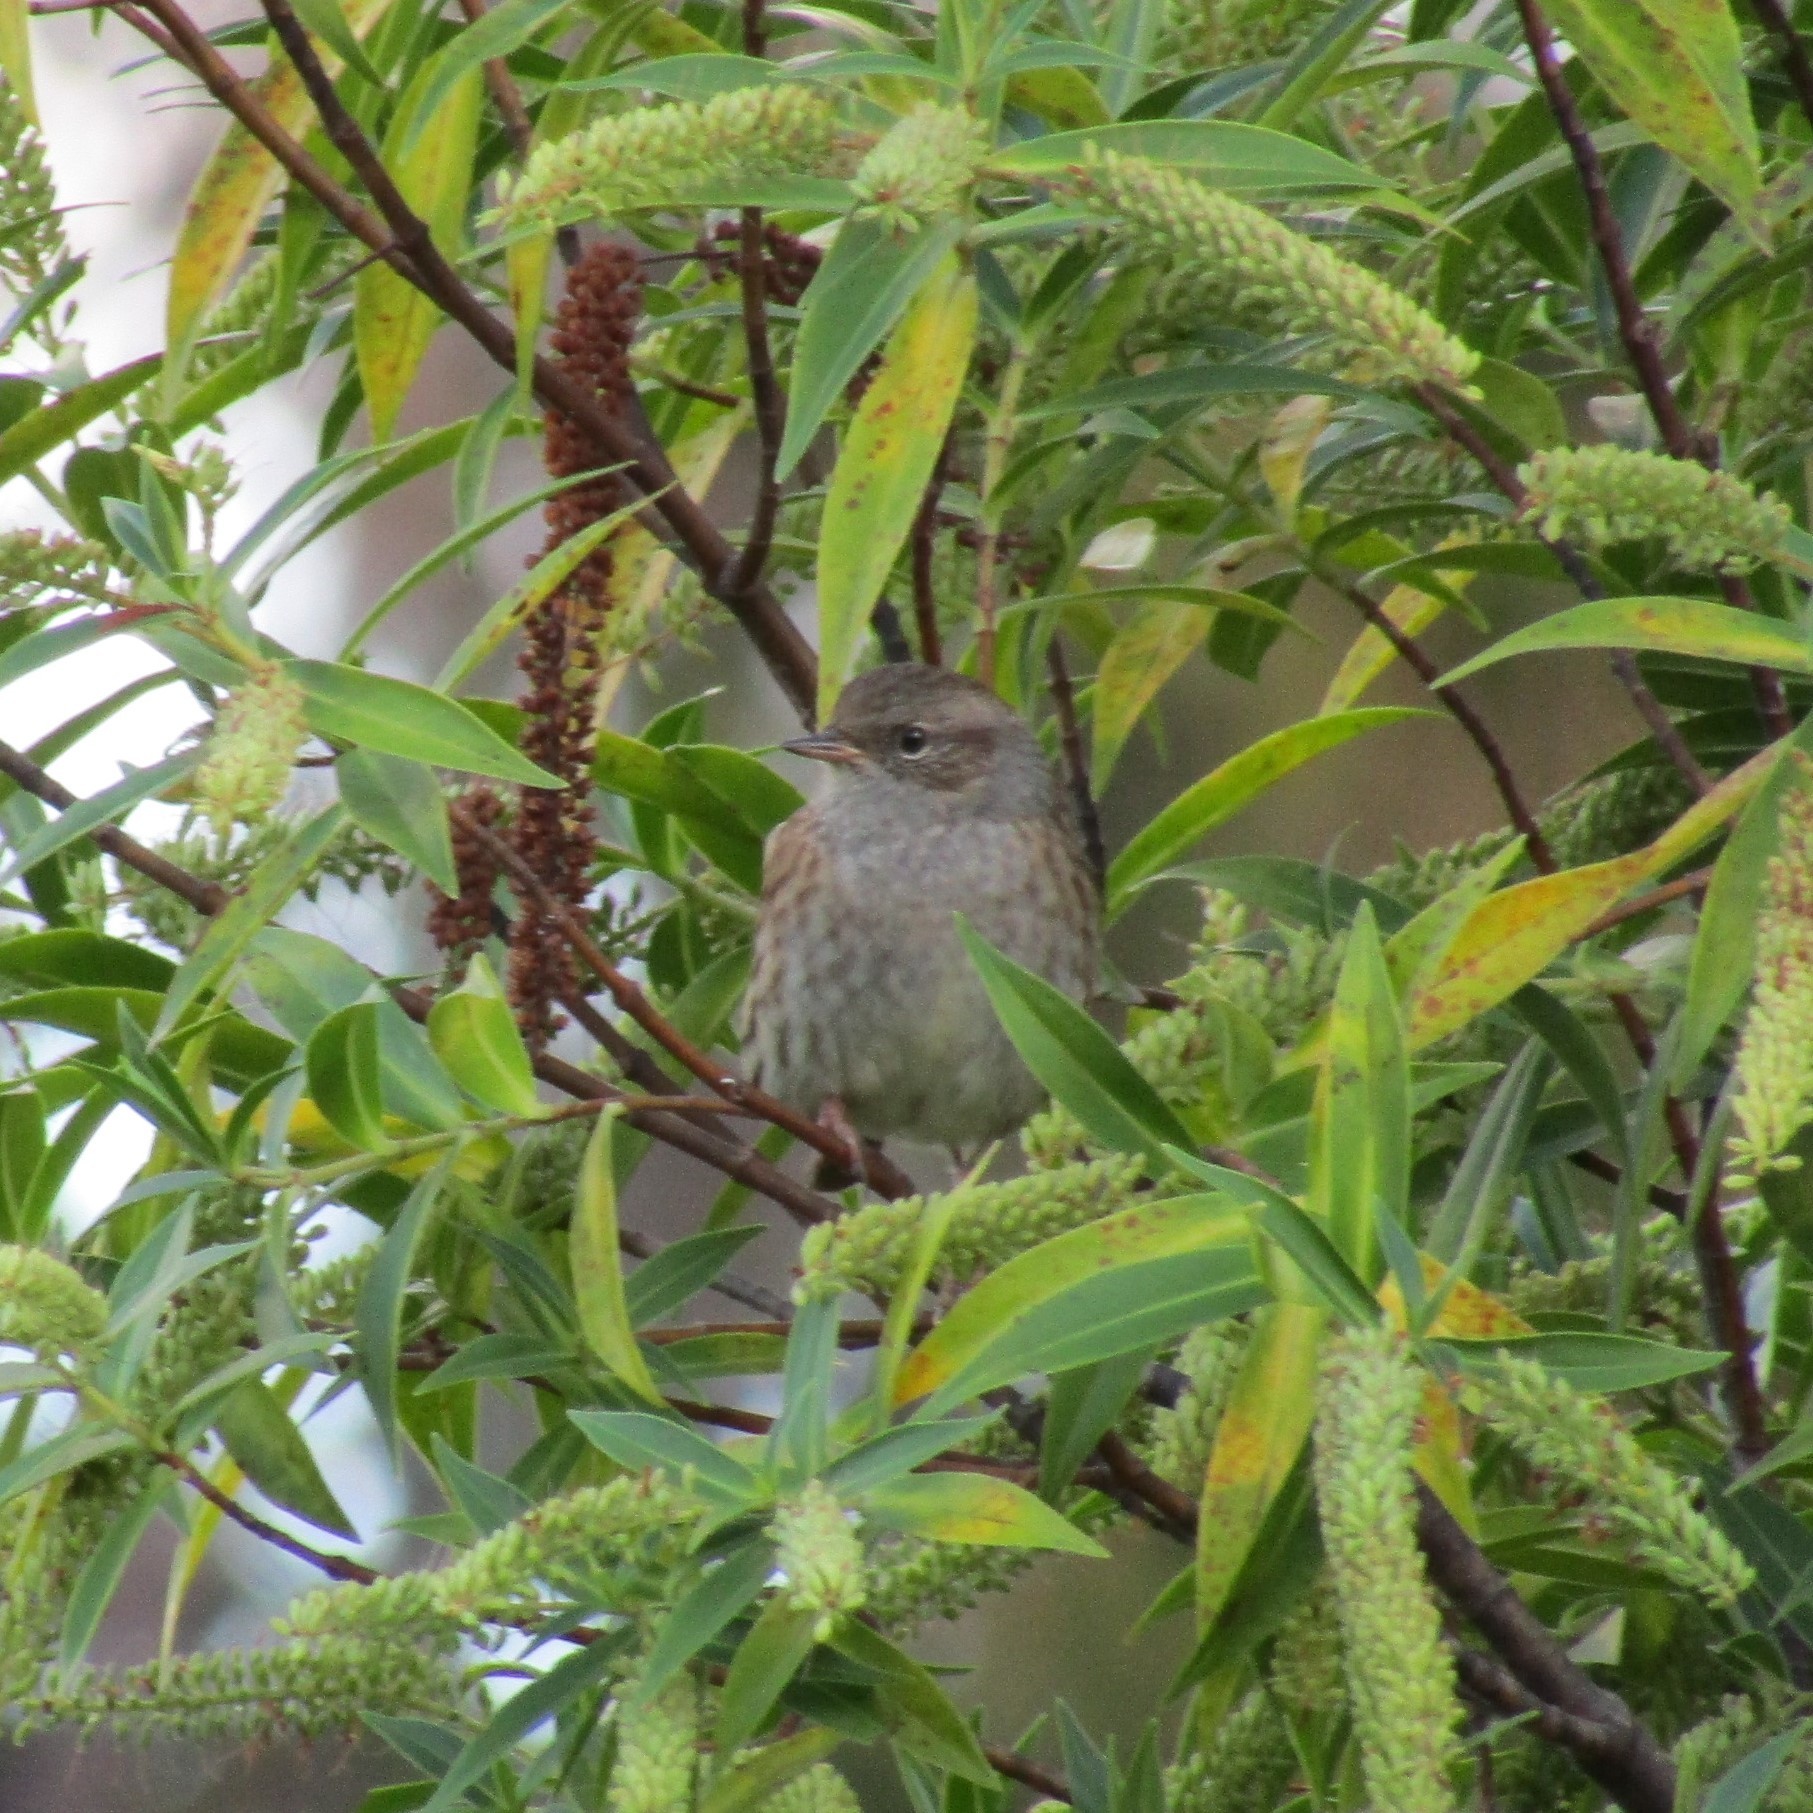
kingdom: Animalia
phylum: Chordata
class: Aves
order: Passeriformes
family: Prunellidae
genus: Prunella
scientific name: Prunella modularis
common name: Dunnock
